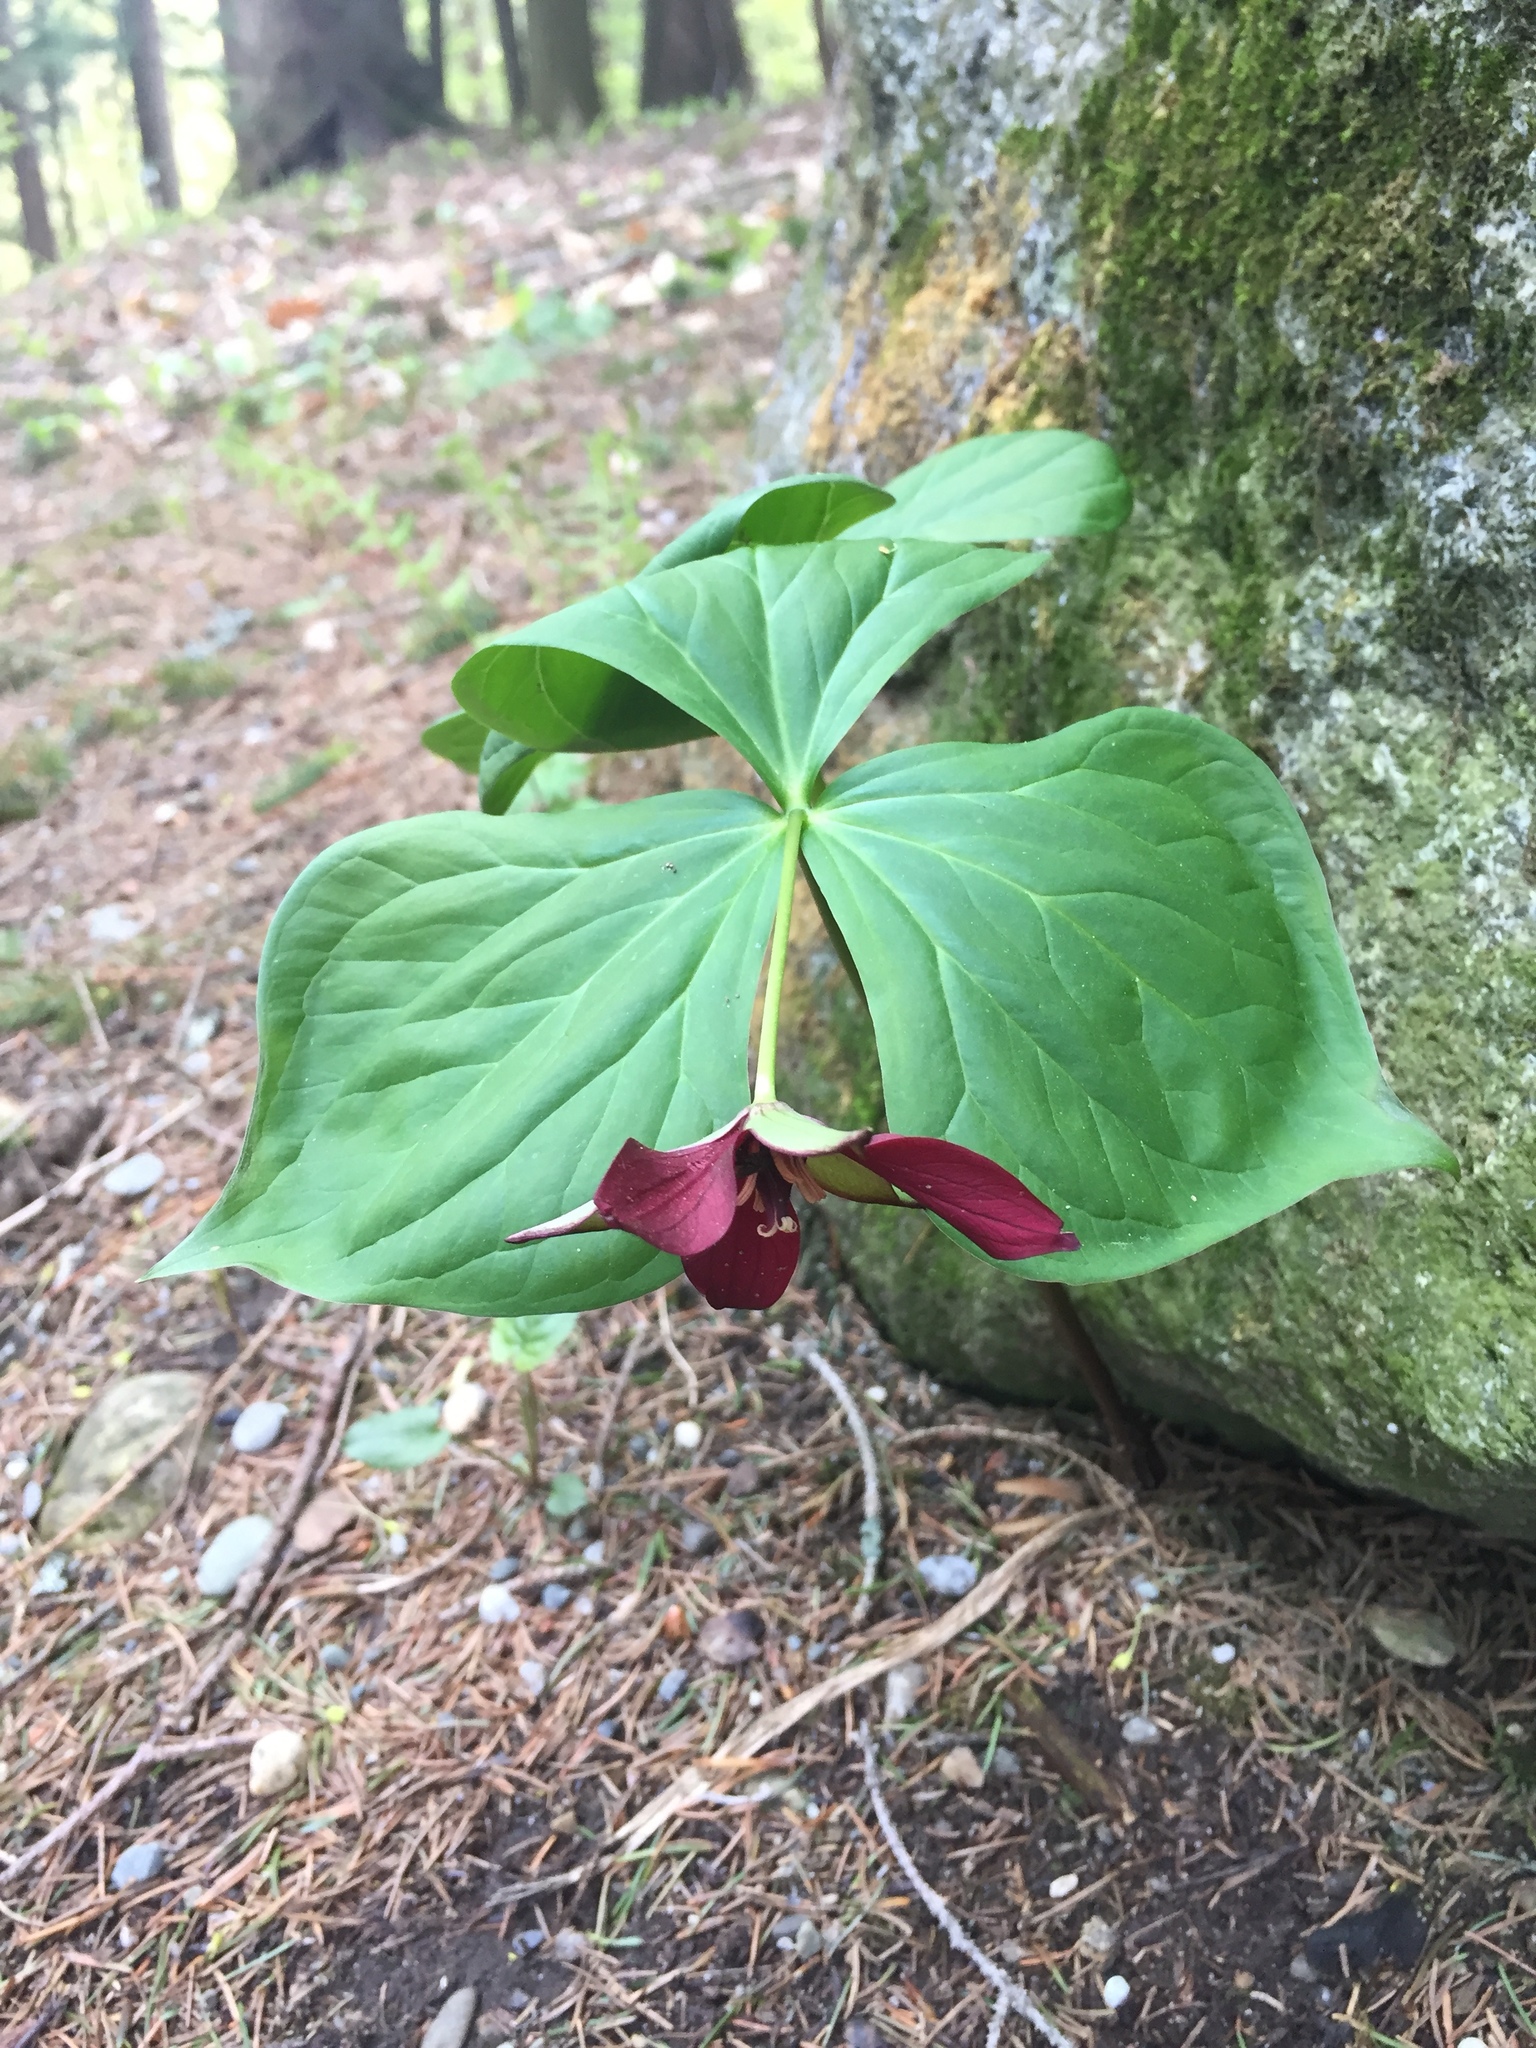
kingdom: Plantae
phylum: Tracheophyta
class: Liliopsida
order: Liliales
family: Melanthiaceae
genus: Trillium
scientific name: Trillium erectum
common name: Purple trillium
